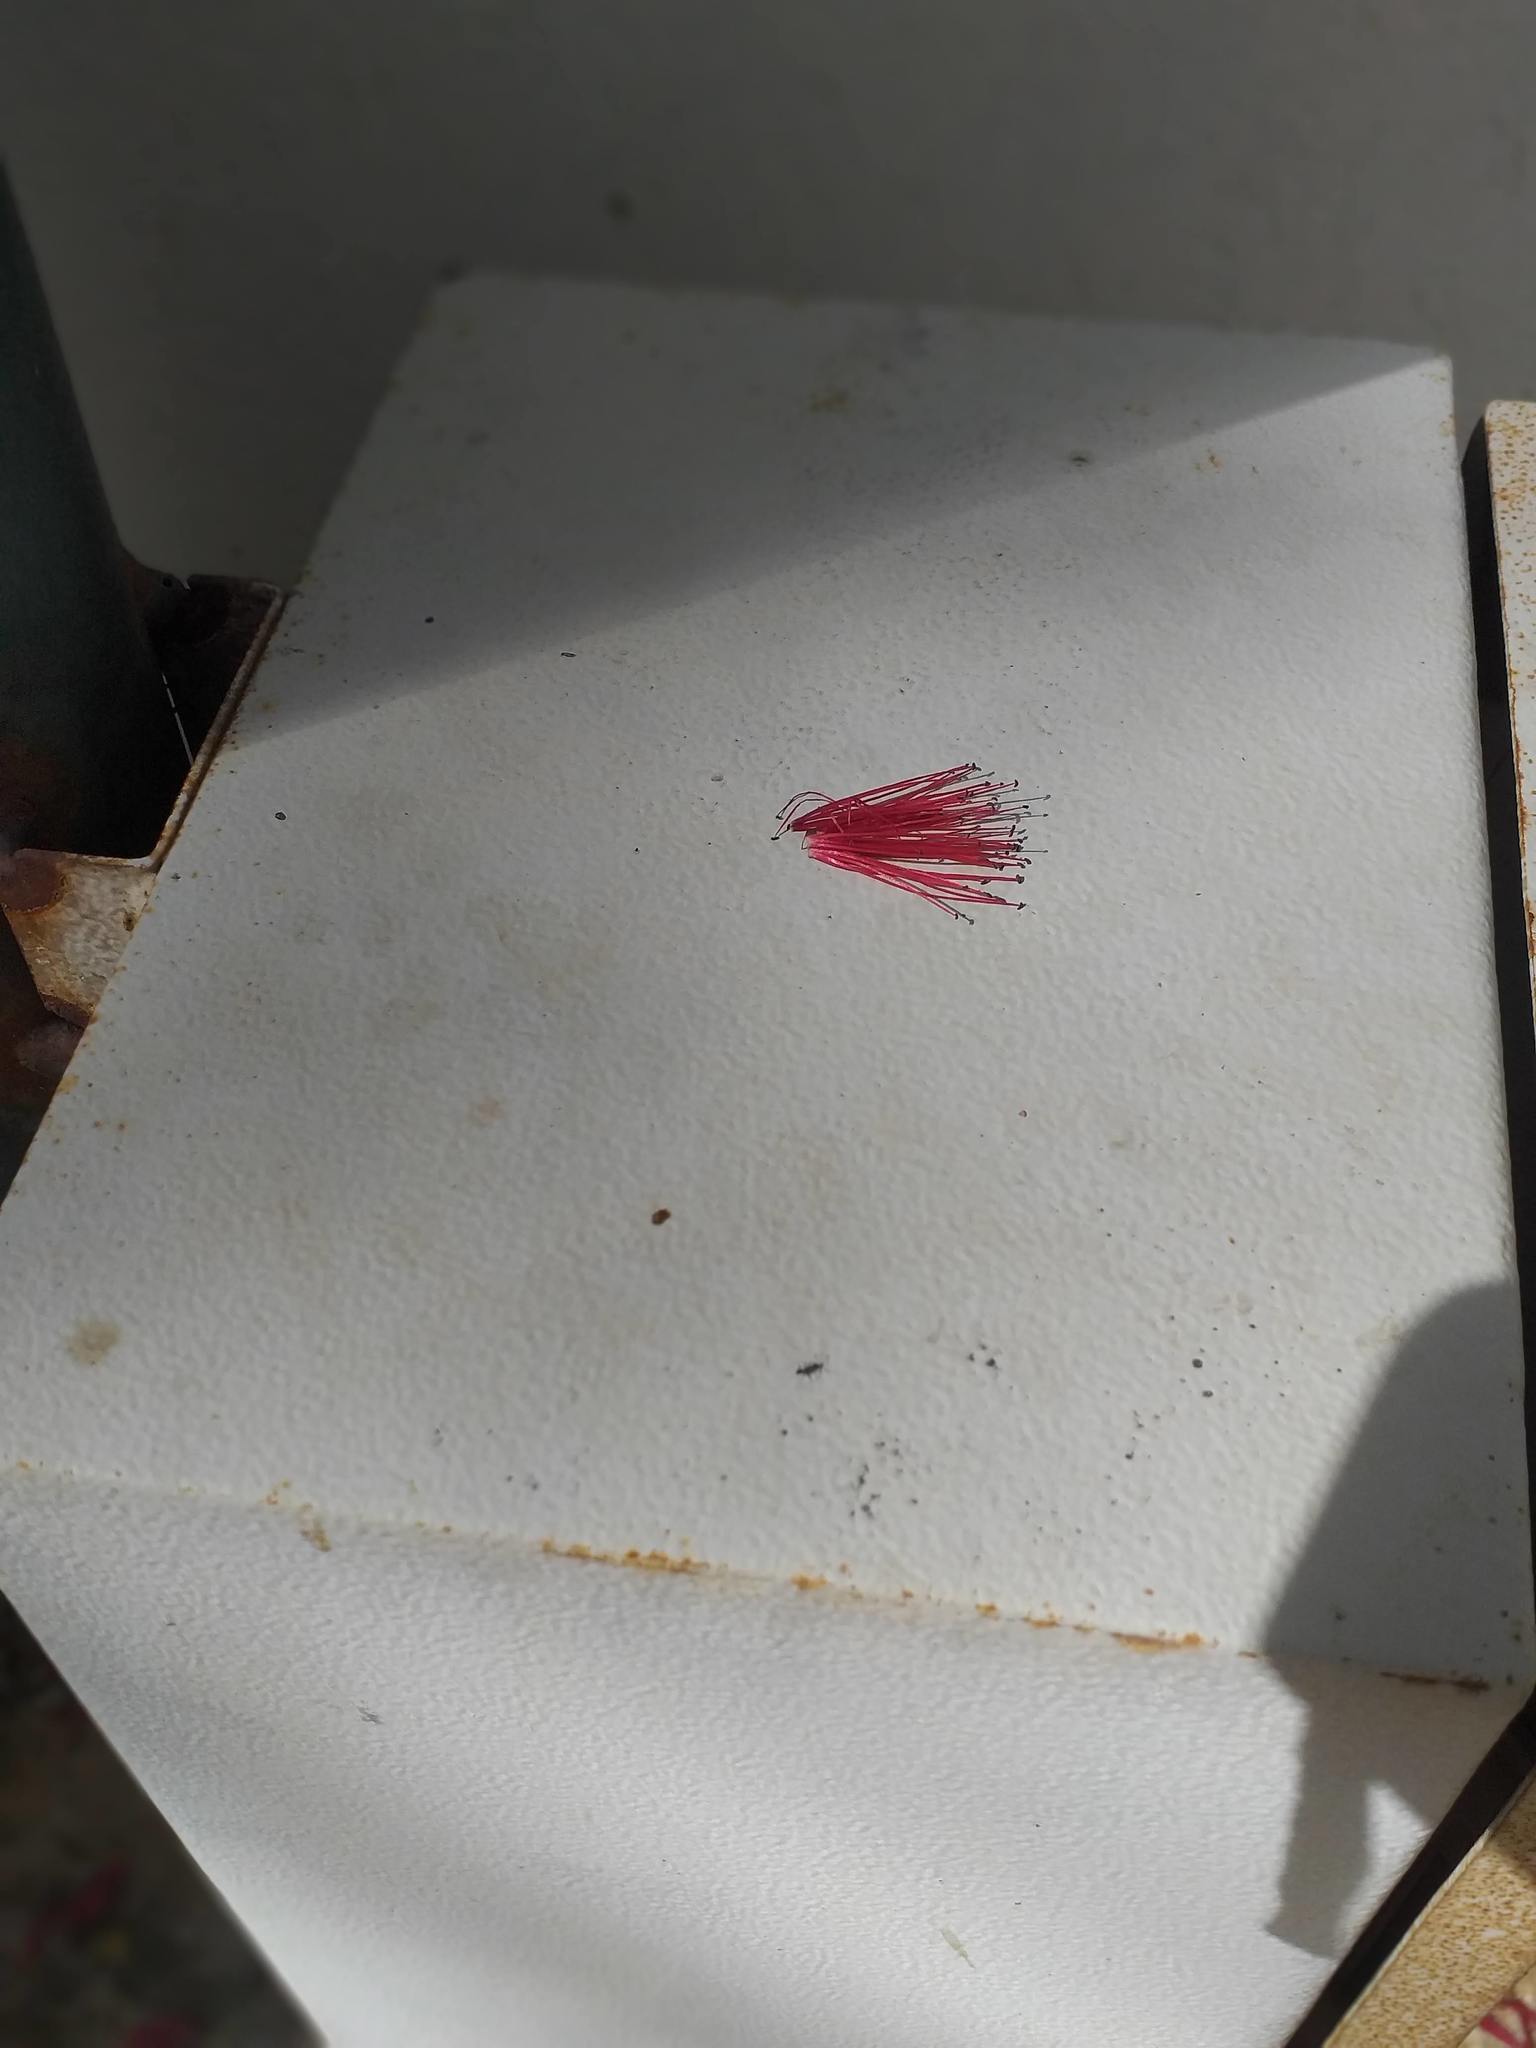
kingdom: Plantae
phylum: Tracheophyta
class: Magnoliopsida
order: Myrtales
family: Myrtaceae
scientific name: Myrtaceae
